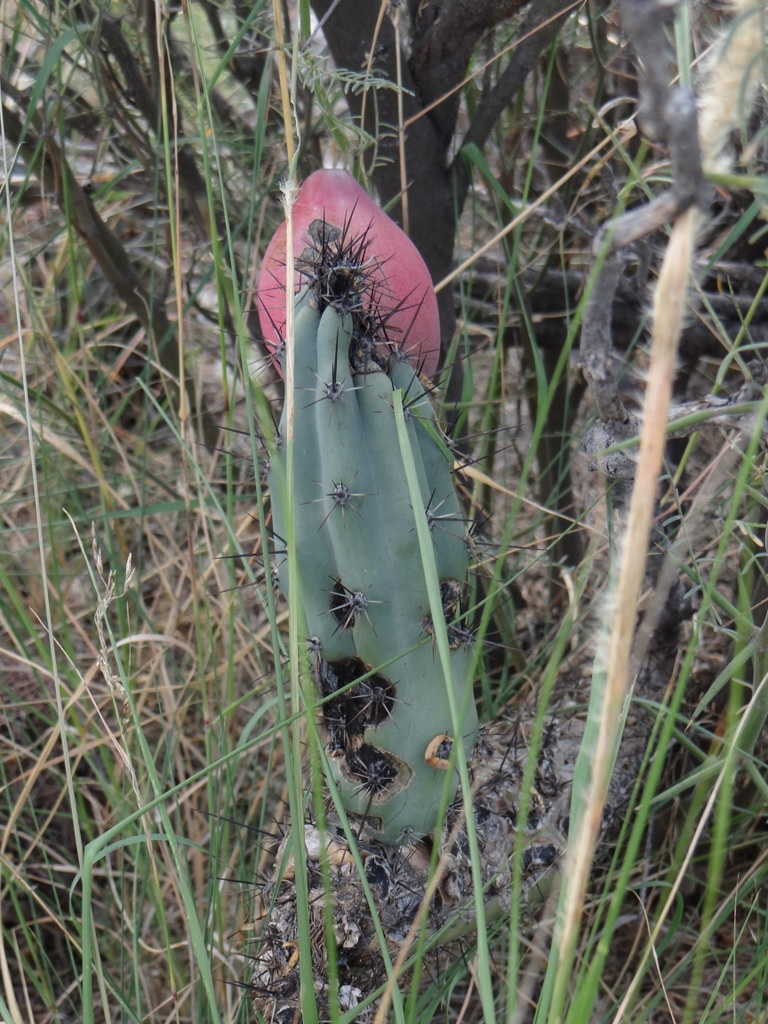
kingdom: Plantae
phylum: Tracheophyta
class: Magnoliopsida
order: Caryophyllales
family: Cactaceae
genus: Cereus
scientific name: Cereus aethiops
